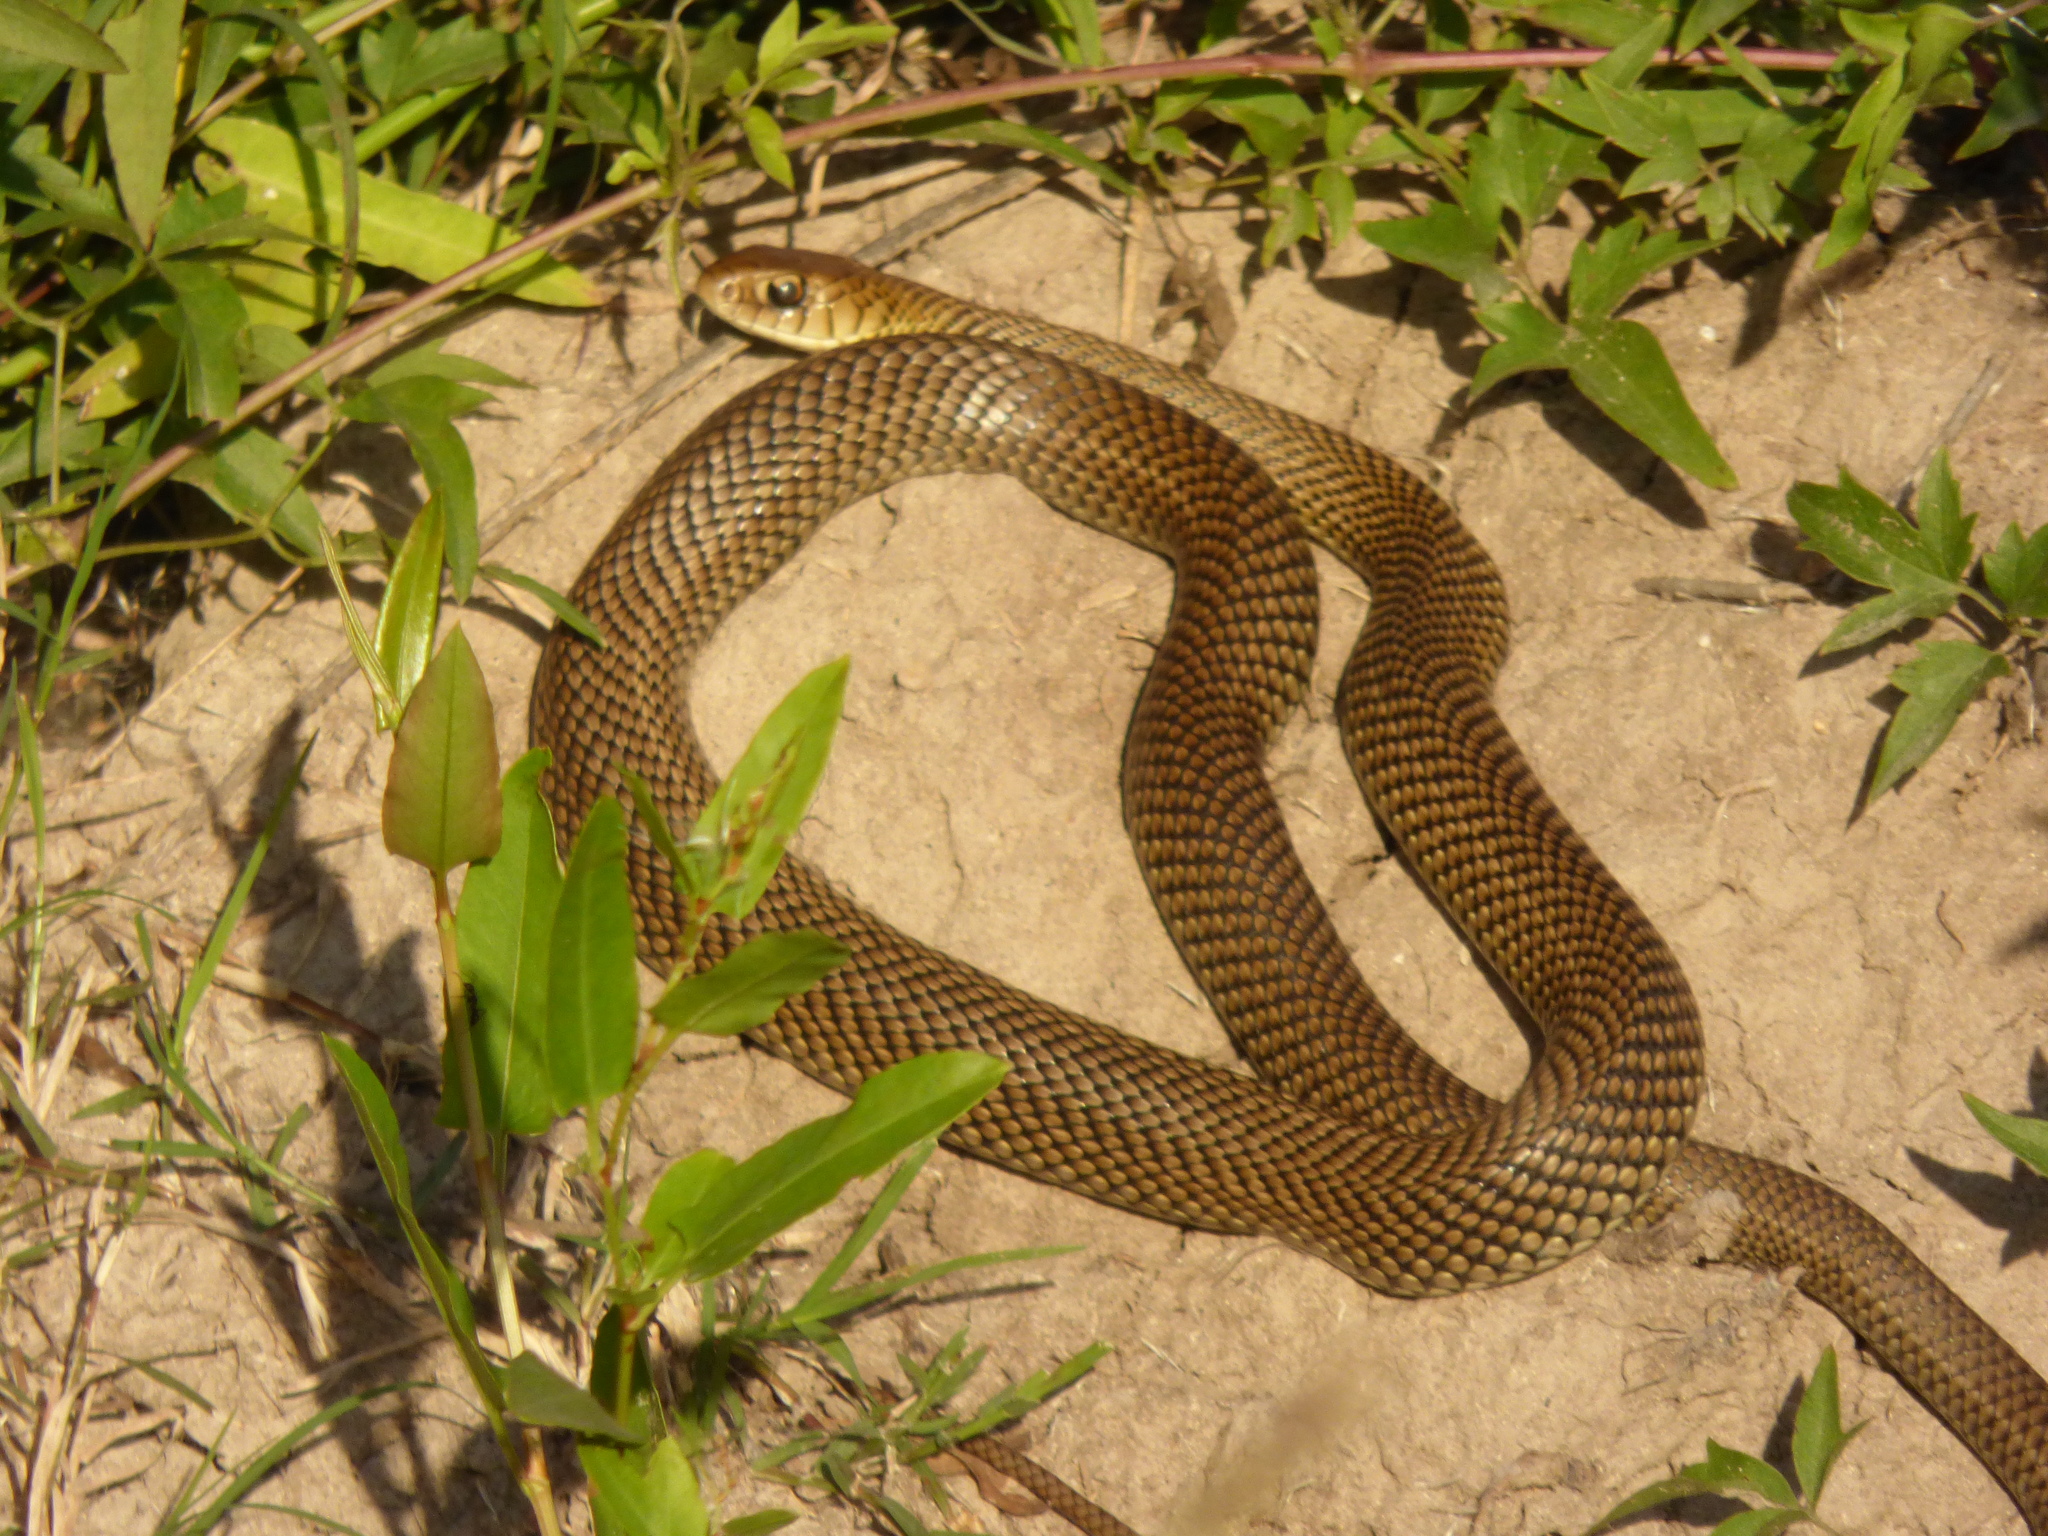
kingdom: Animalia
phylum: Chordata
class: Squamata
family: Colubridae
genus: Philodryas
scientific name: Philodryas patagoniensis
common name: Patagonia green racer
